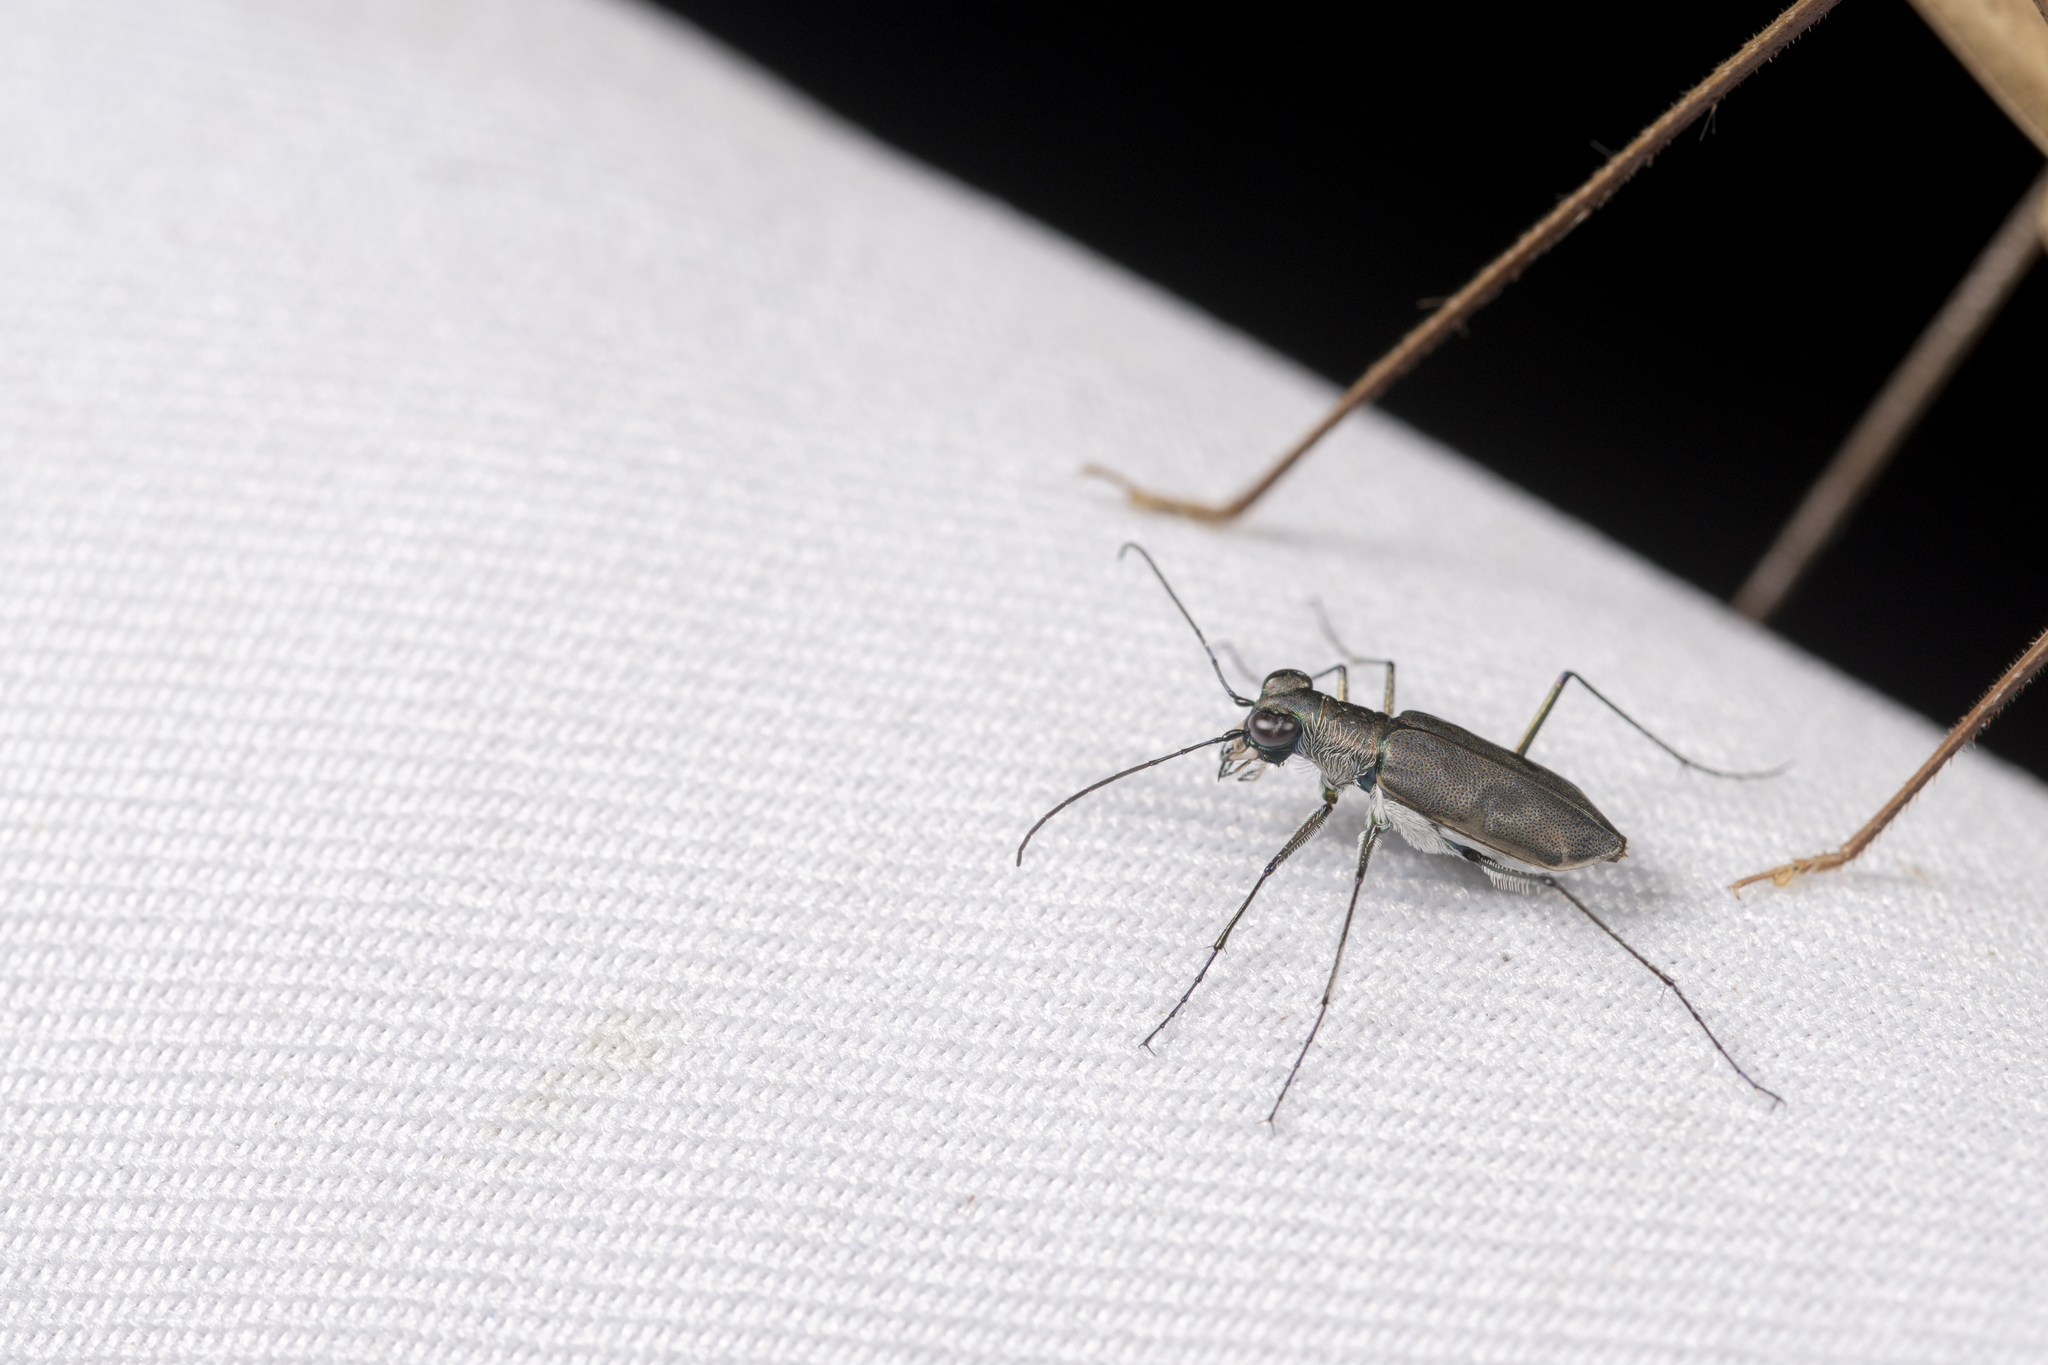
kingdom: Animalia
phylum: Arthropoda
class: Insecta
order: Coleoptera
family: Carabidae
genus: Cylindera
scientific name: Cylindera elisae
